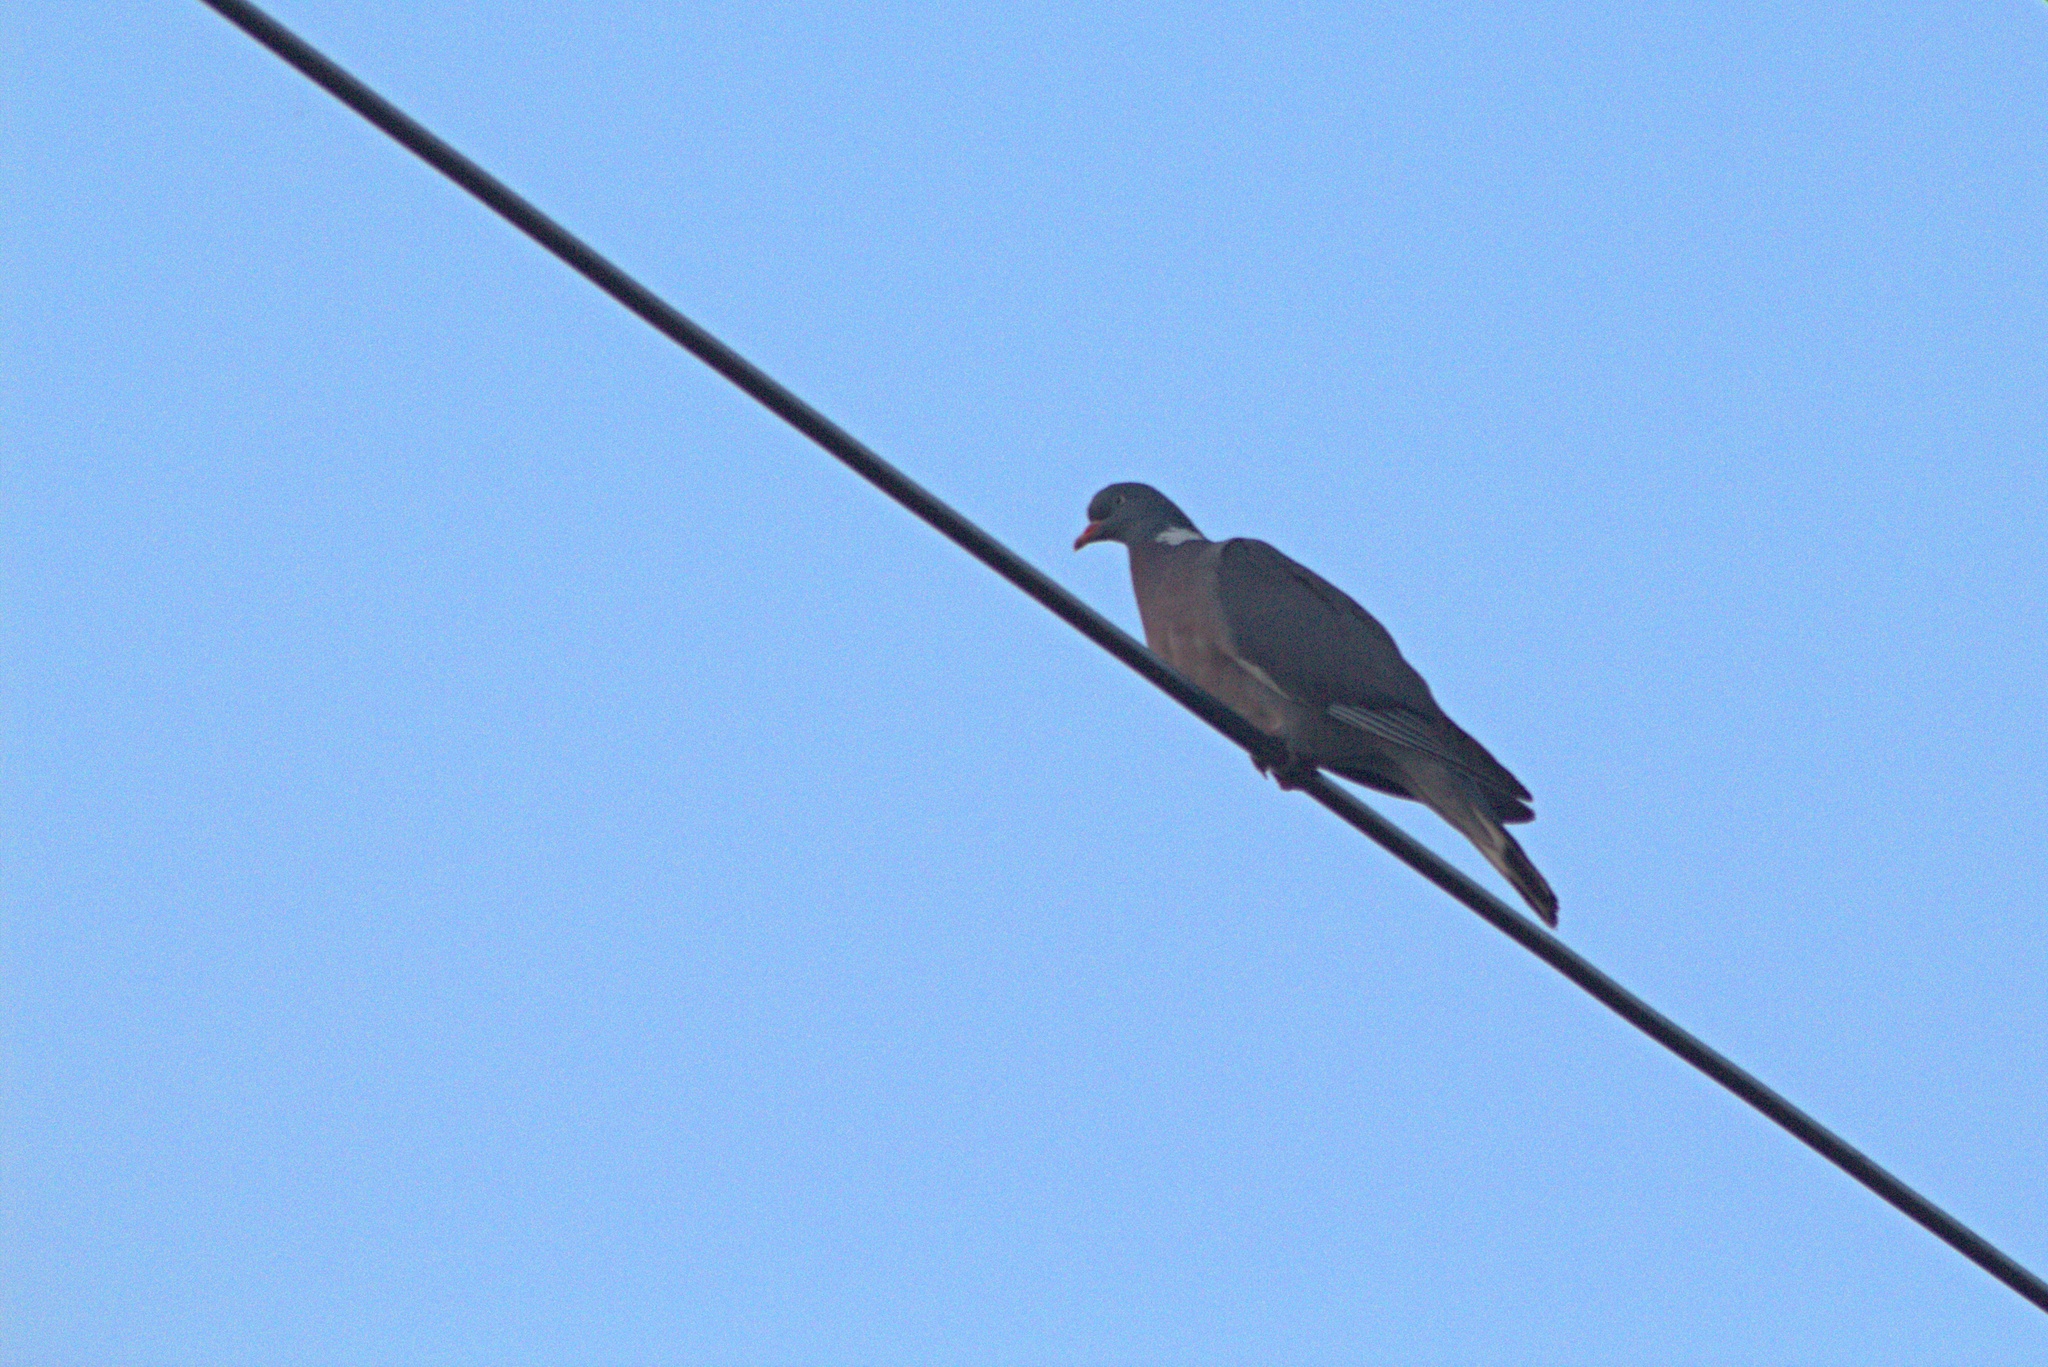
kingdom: Animalia
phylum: Chordata
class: Aves
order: Columbiformes
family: Columbidae
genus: Columba
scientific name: Columba palumbus
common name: Common wood pigeon
